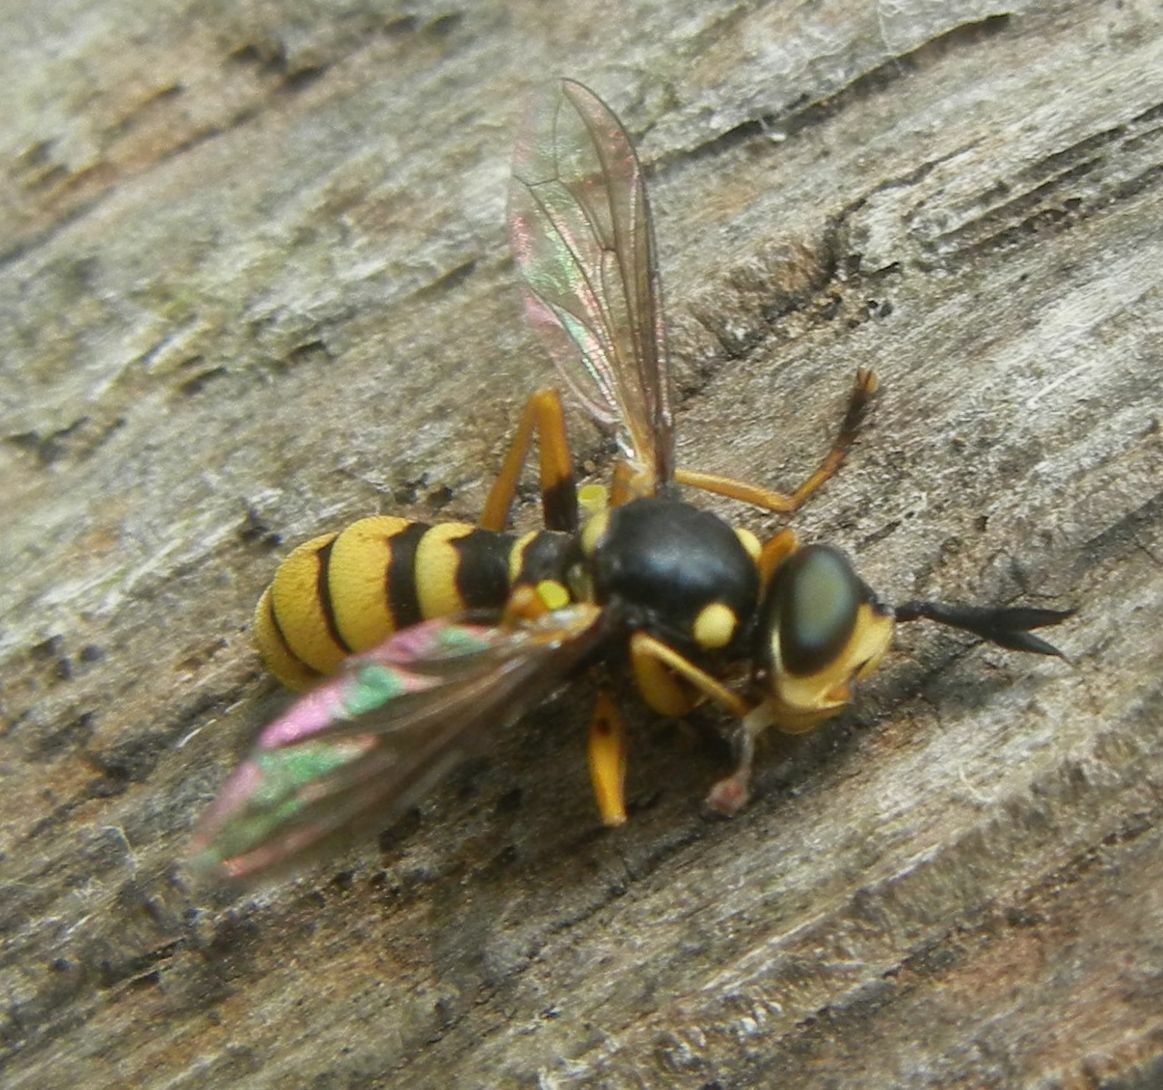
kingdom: Animalia
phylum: Arthropoda
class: Insecta
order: Diptera
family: Conopidae
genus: Leopoldius
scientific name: Leopoldius signatus
